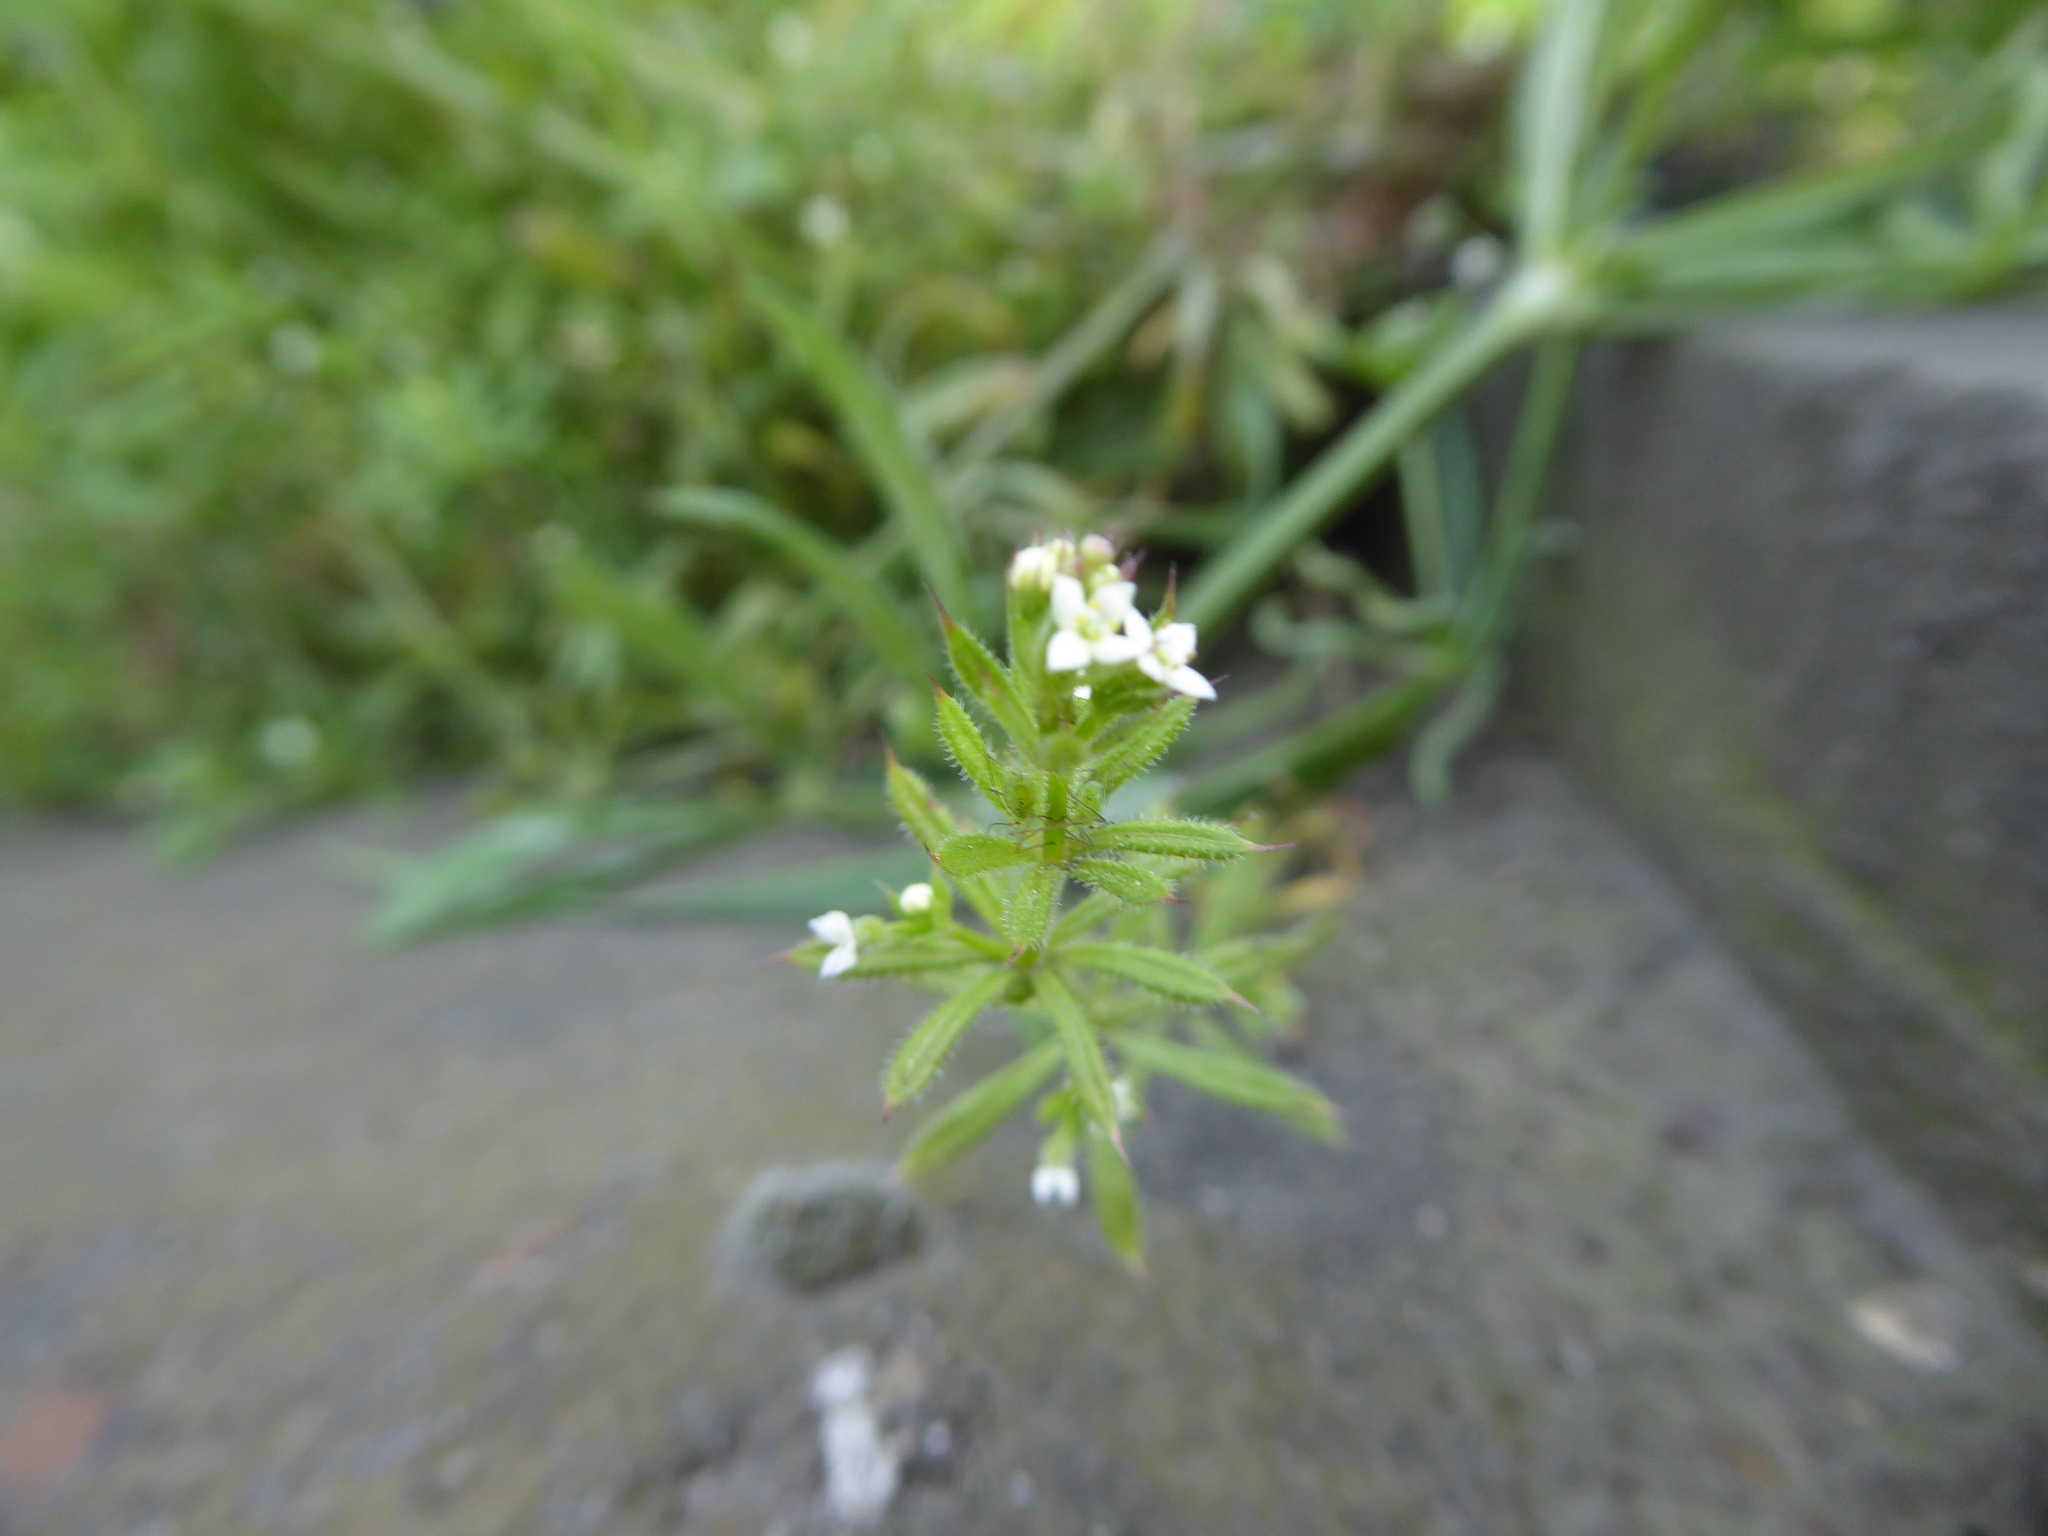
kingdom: Plantae
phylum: Tracheophyta
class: Magnoliopsida
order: Gentianales
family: Rubiaceae
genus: Galium
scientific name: Galium aparine
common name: Cleavers
